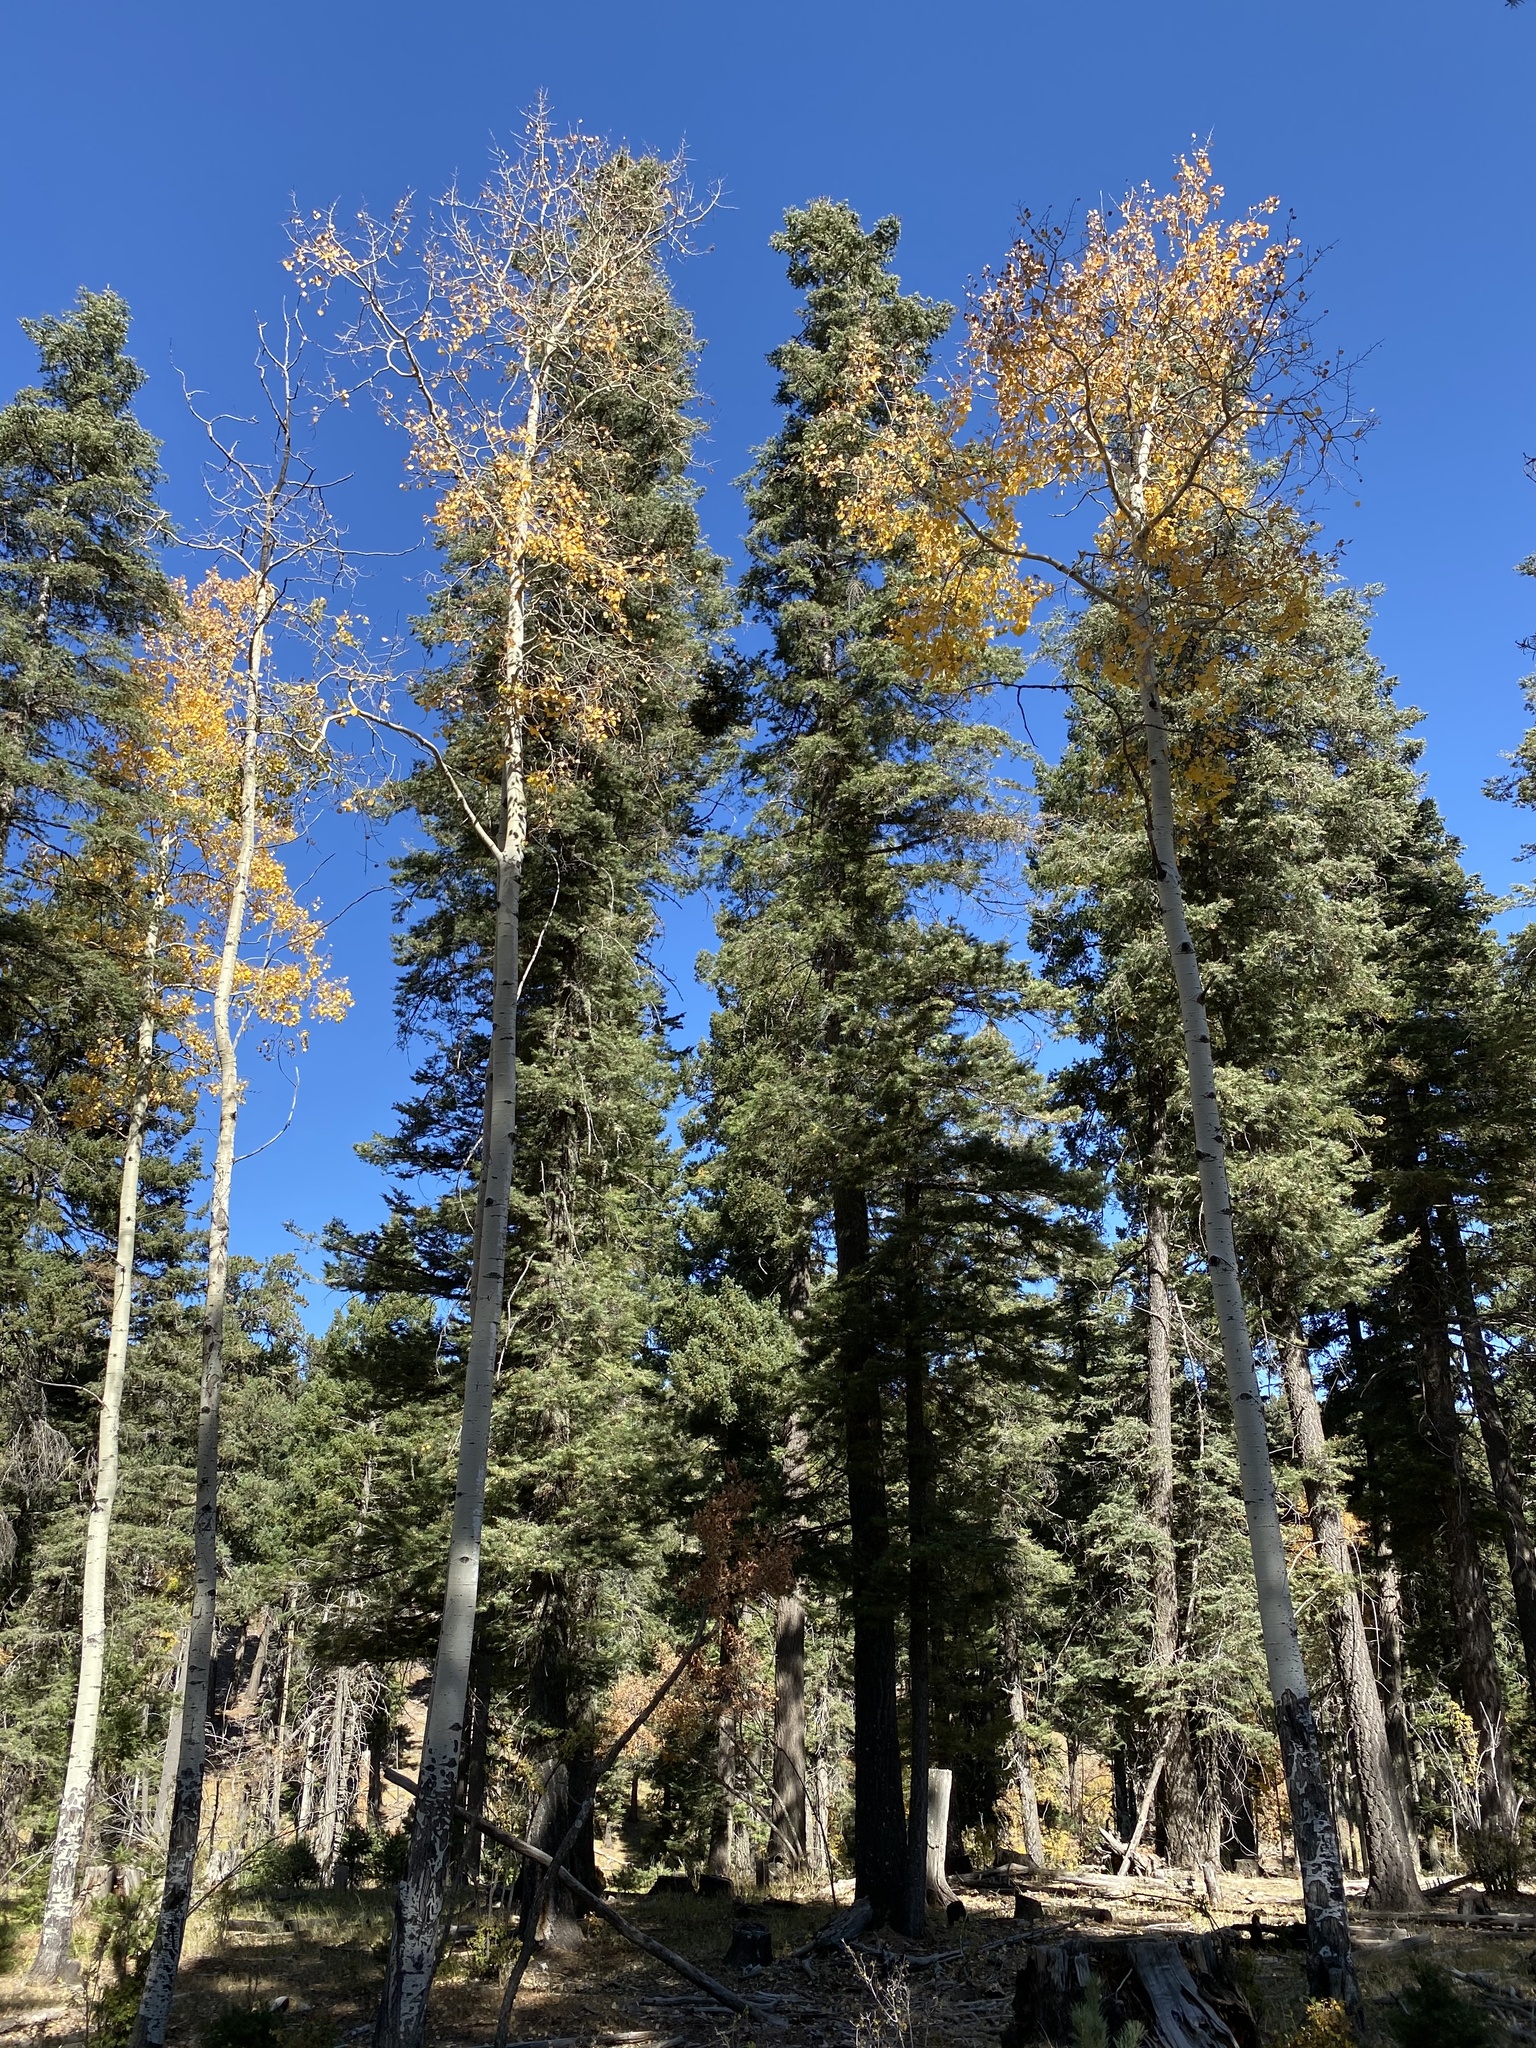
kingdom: Plantae
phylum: Tracheophyta
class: Magnoliopsida
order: Malpighiales
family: Salicaceae
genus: Populus
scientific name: Populus tremuloides
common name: Quaking aspen
